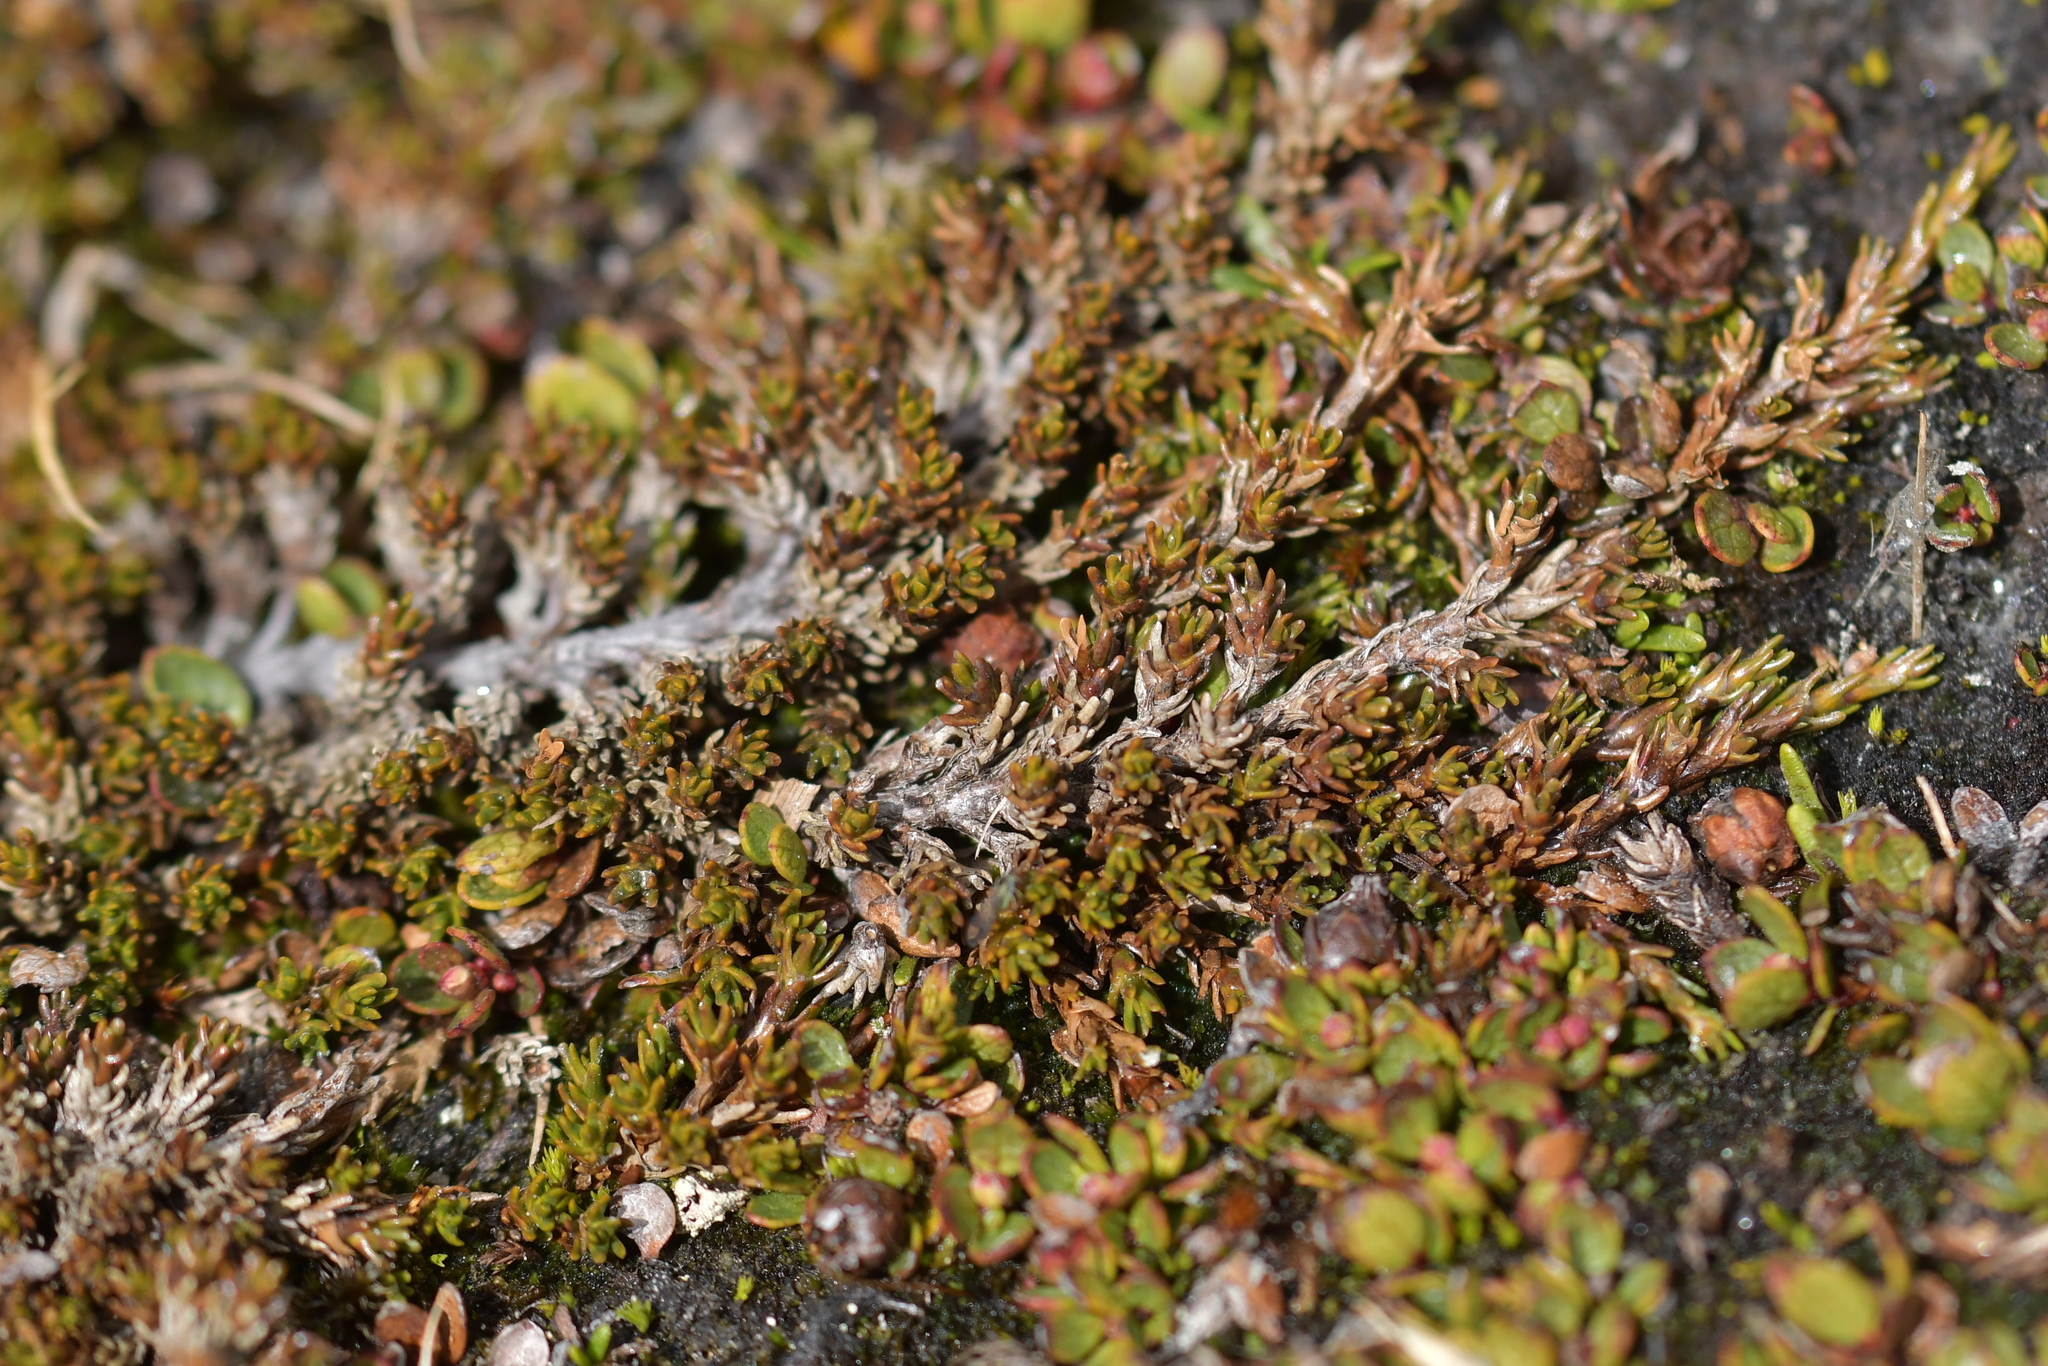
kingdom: Plantae
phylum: Tracheophyta
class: Magnoliopsida
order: Ericales
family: Ericaceae
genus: Dracophyllum
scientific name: Dracophyllum muscoides
